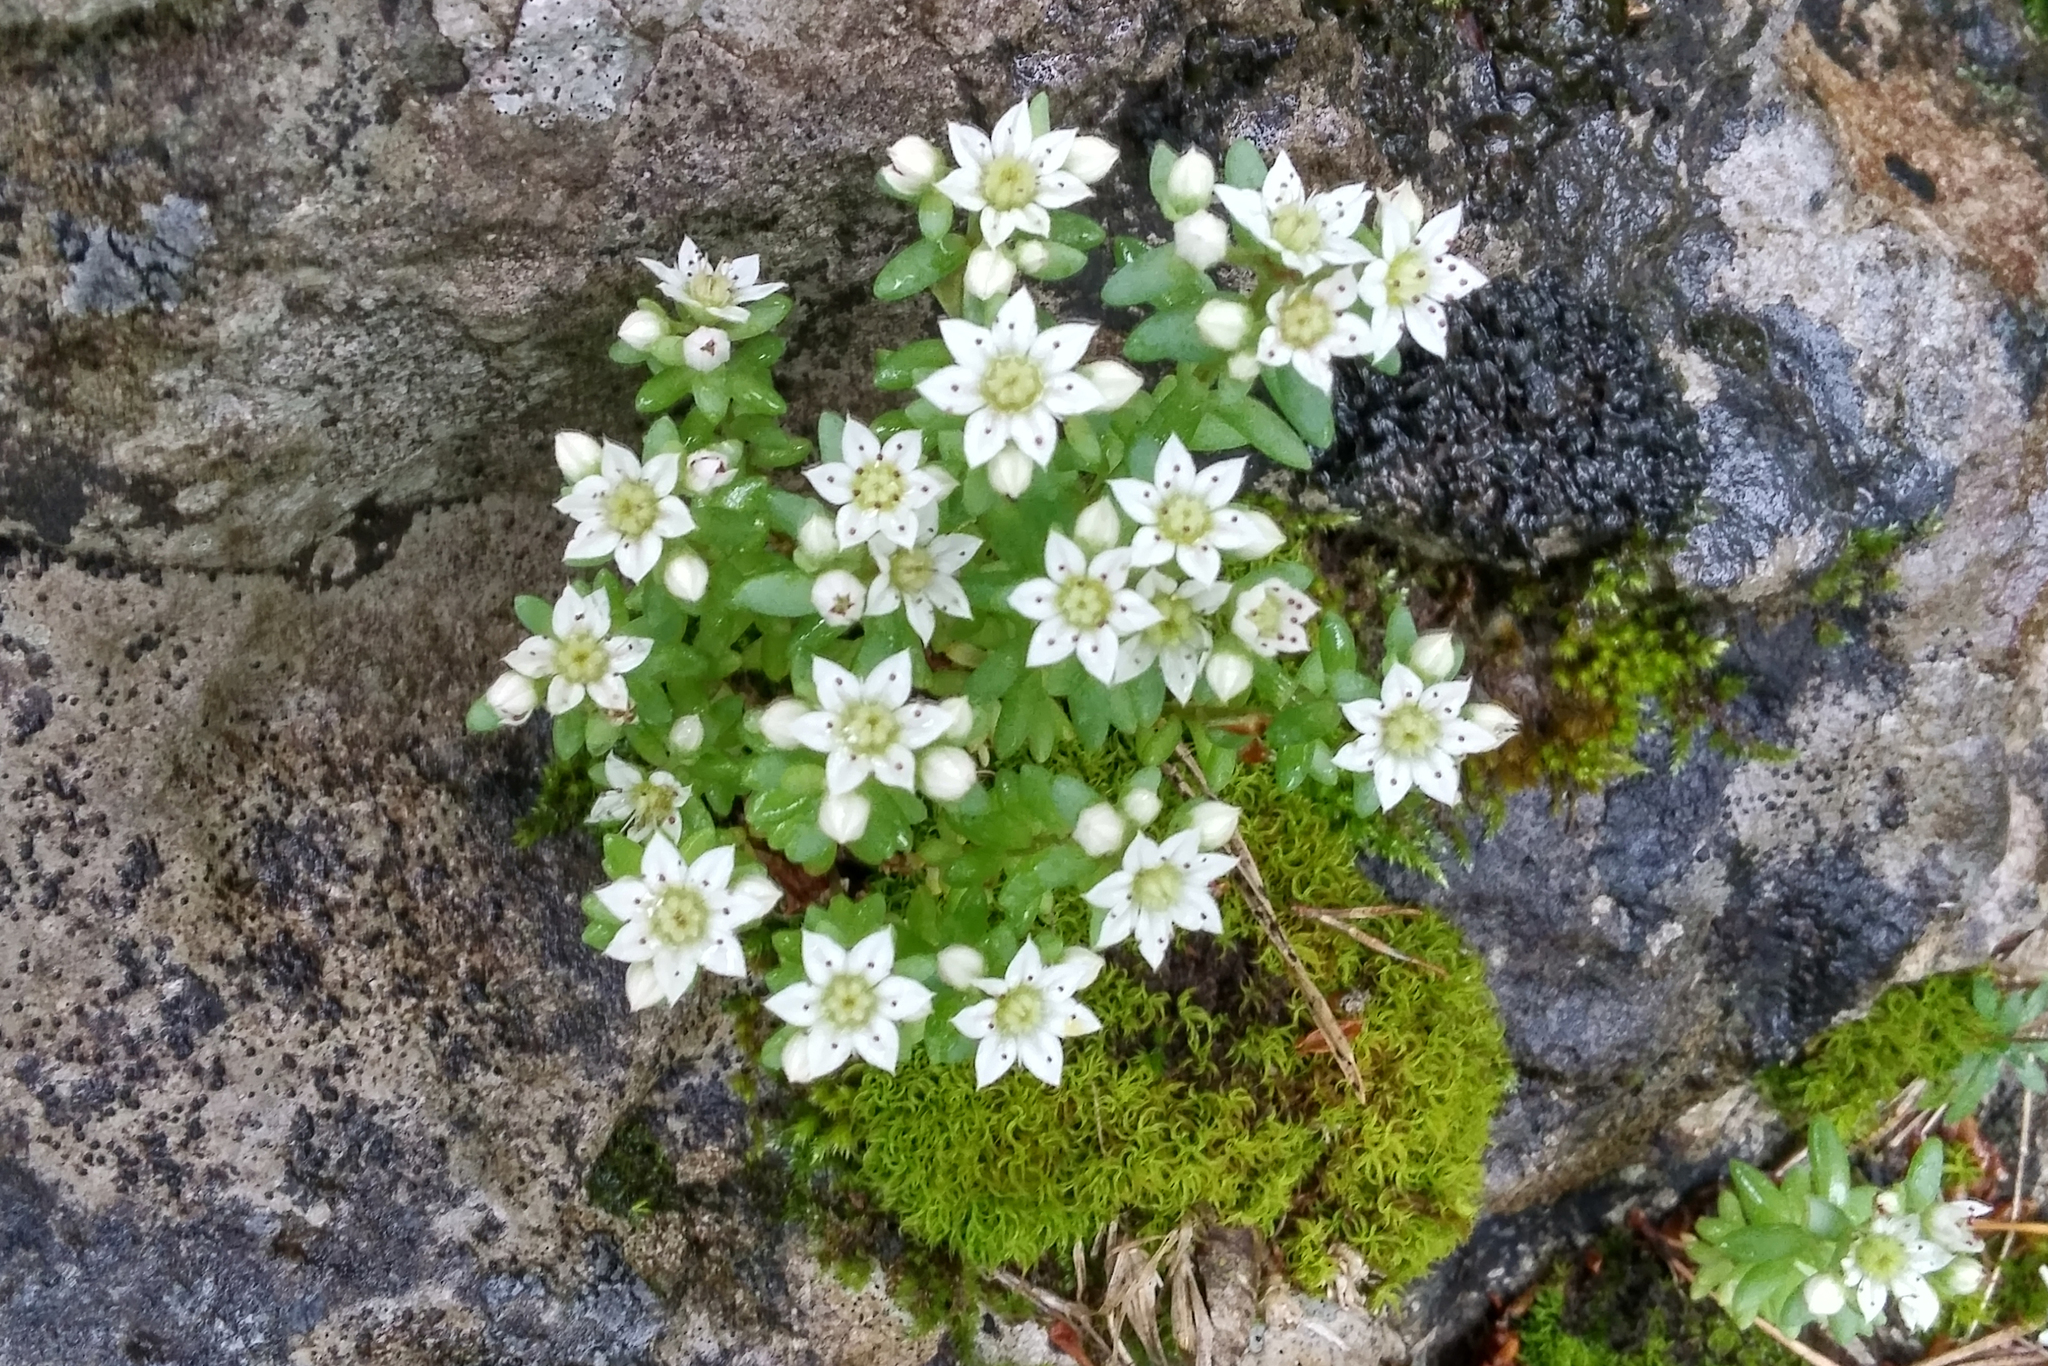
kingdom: Plantae
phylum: Tracheophyta
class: Magnoliopsida
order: Saxifragales
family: Crassulaceae
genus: Sedum
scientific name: Sedum hispanicum
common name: Spanish stonecrop
